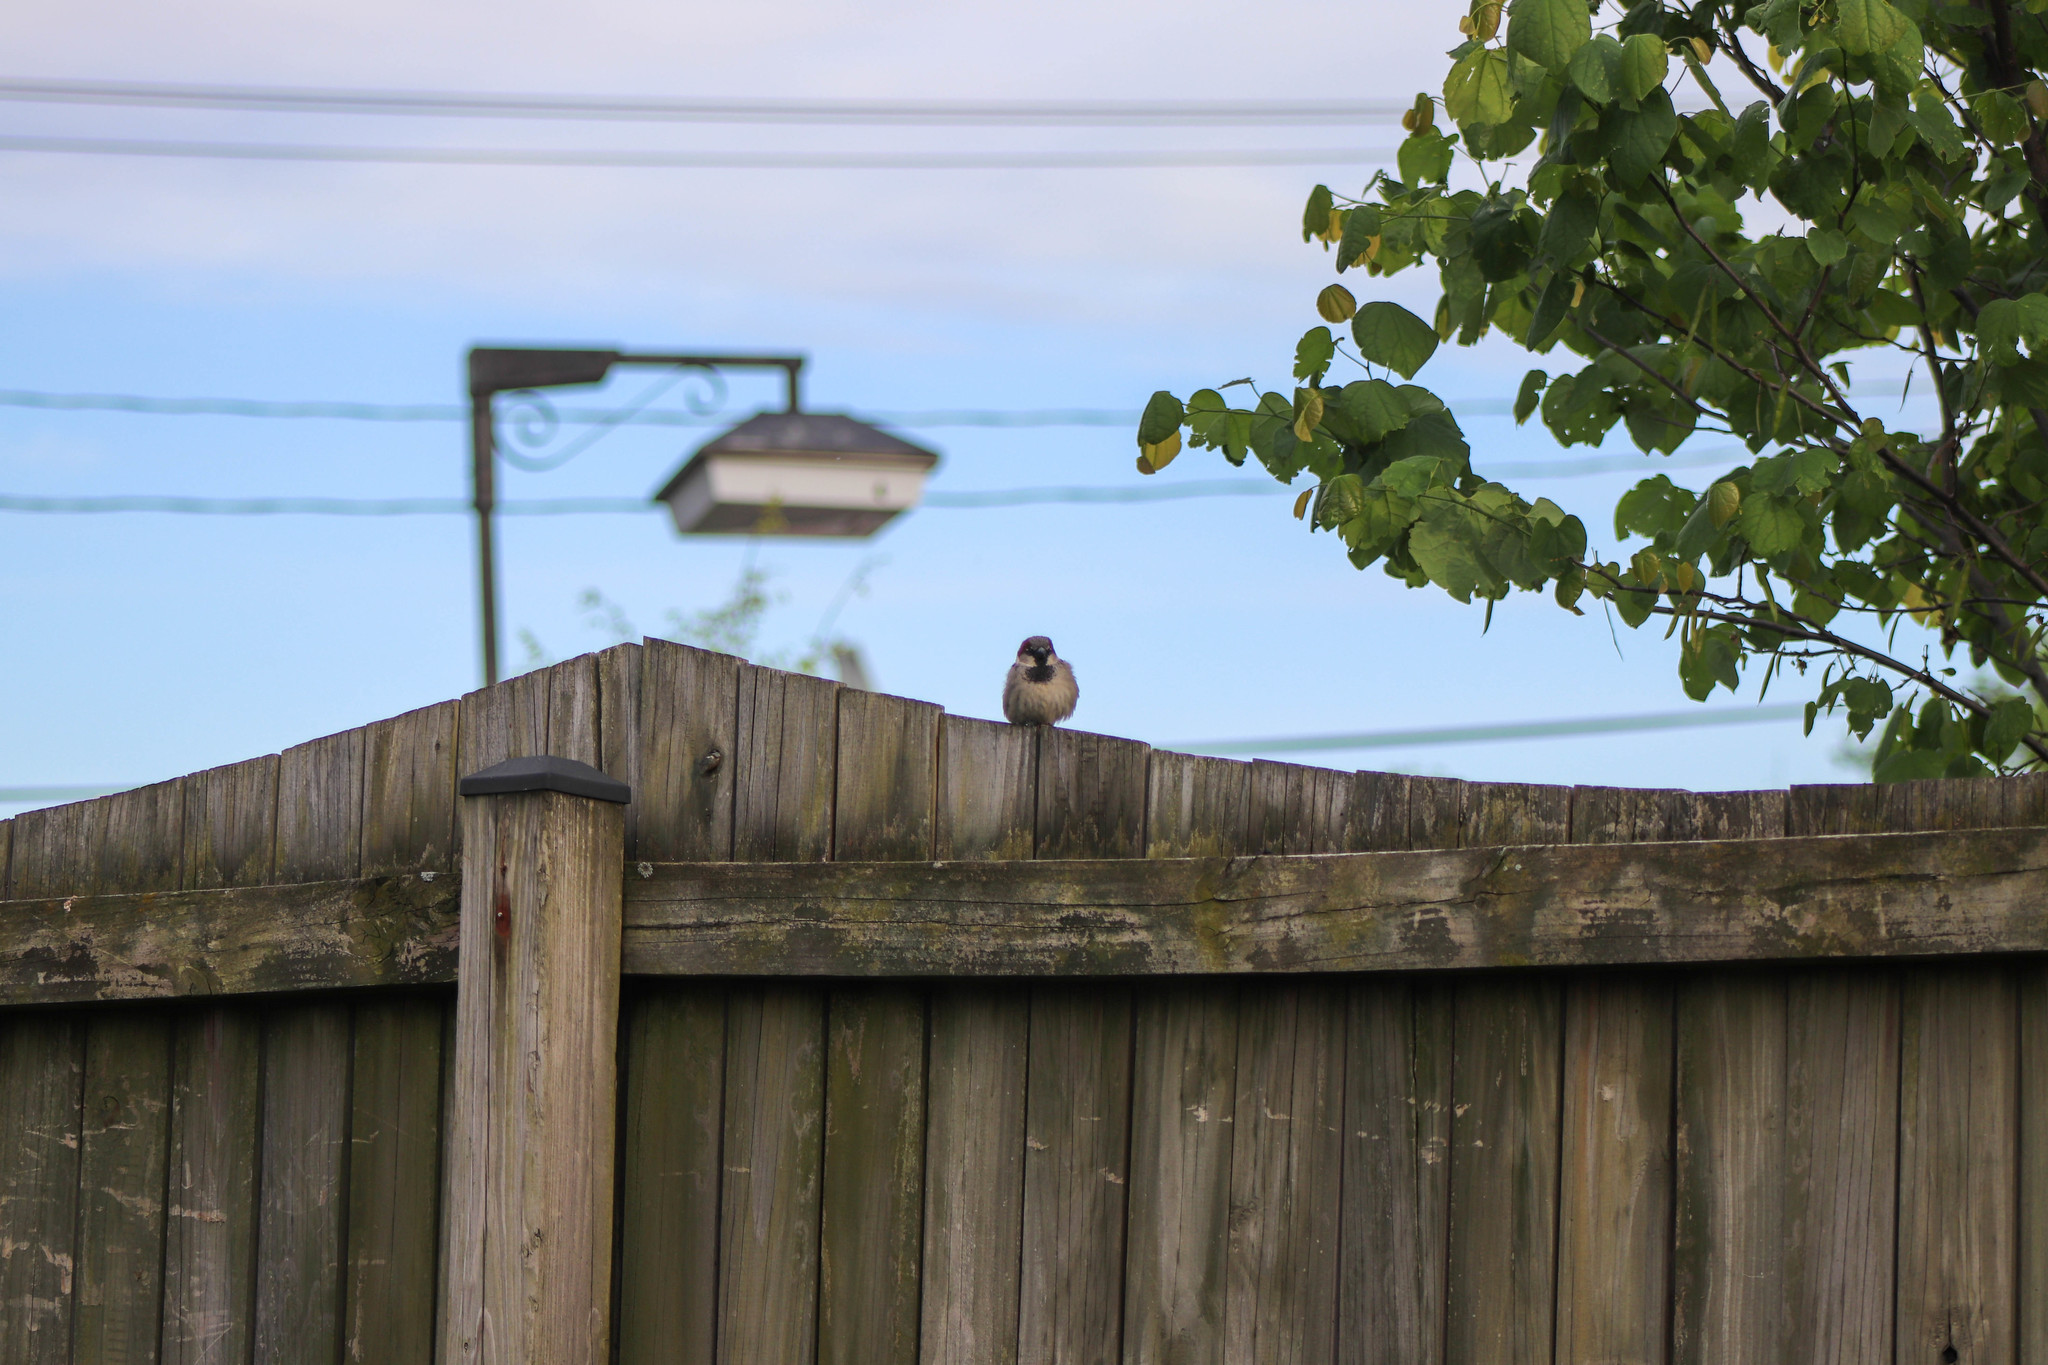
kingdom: Animalia
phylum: Chordata
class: Aves
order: Passeriformes
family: Passeridae
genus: Passer
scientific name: Passer domesticus
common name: House sparrow
